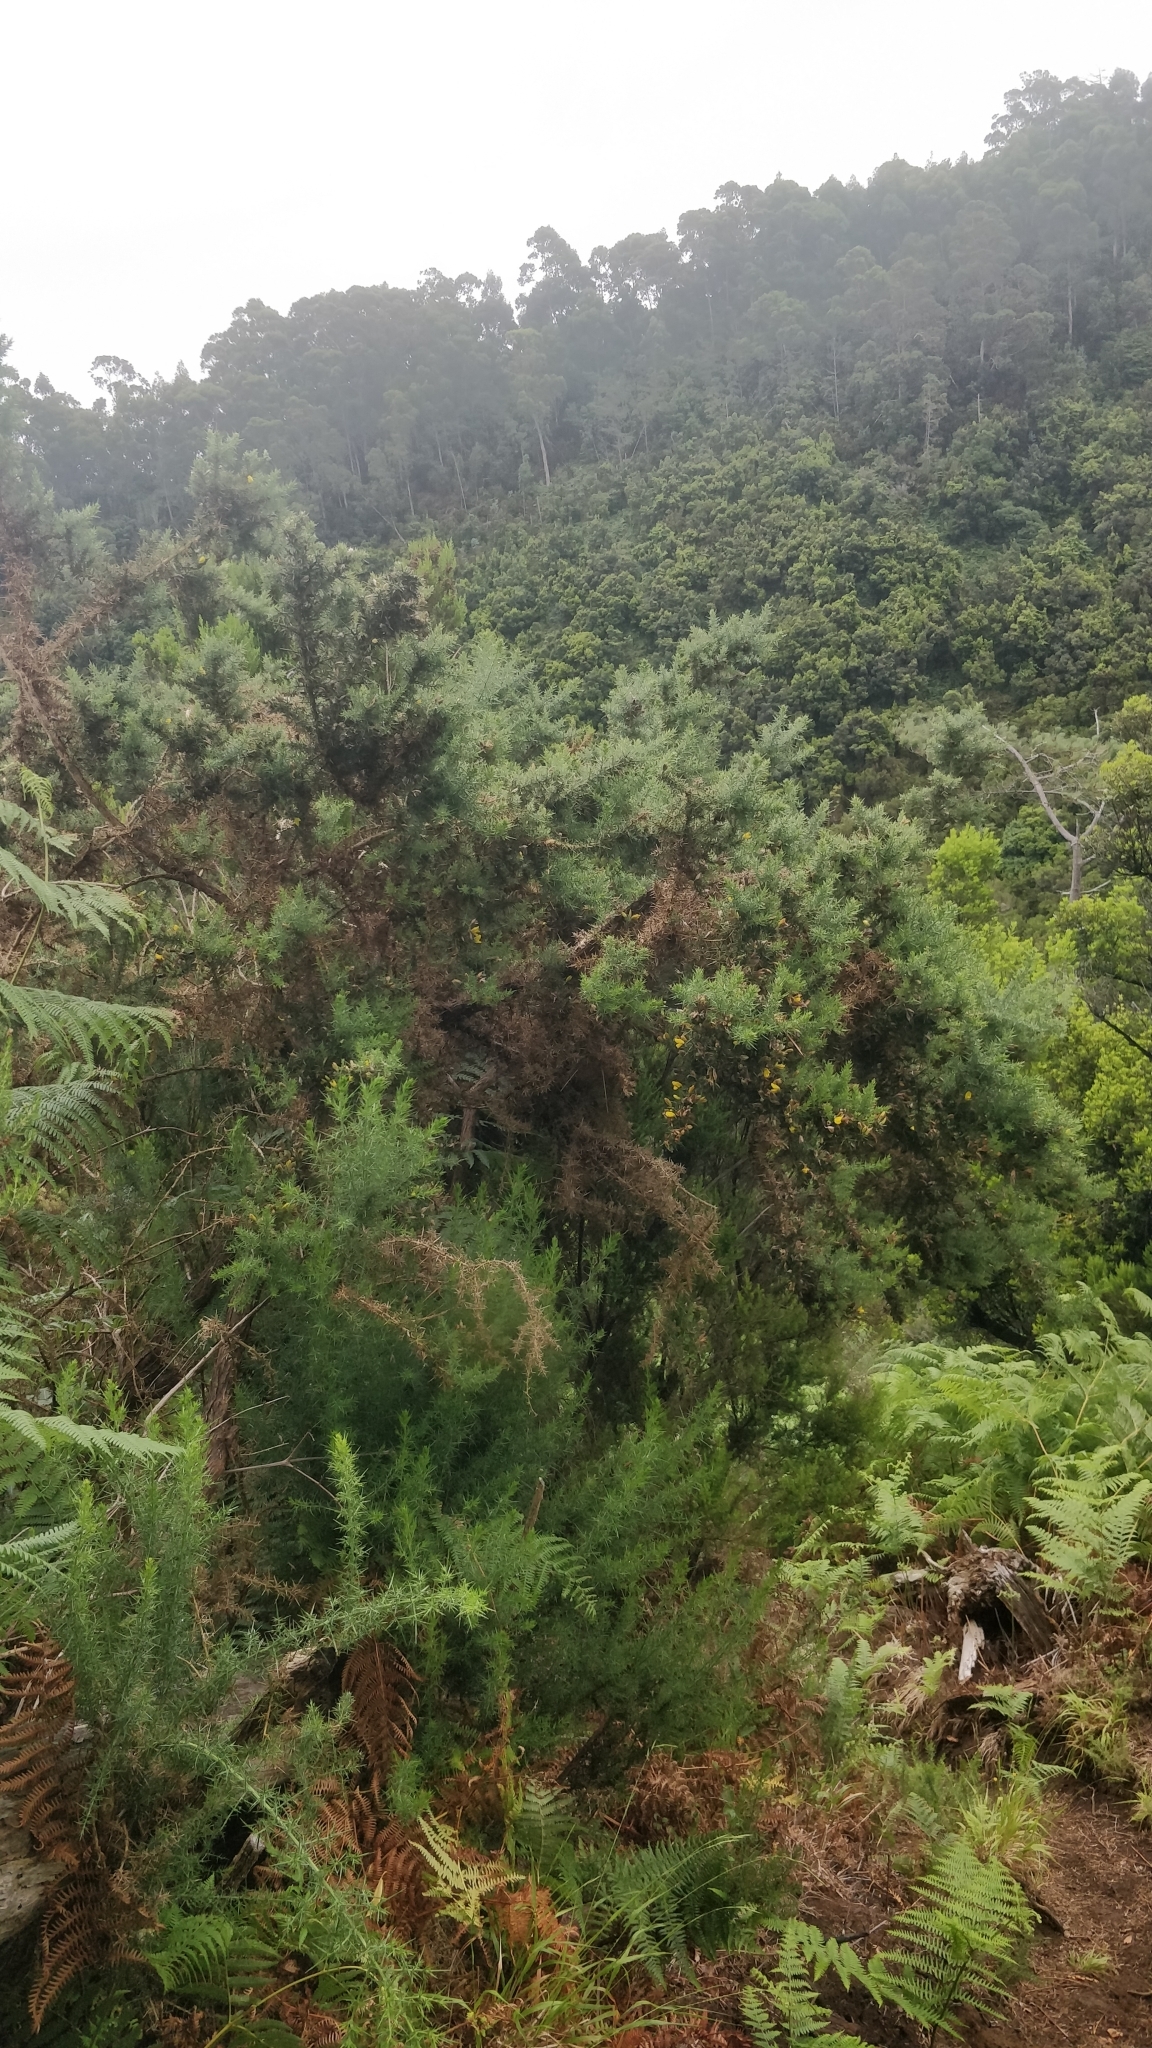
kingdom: Plantae
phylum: Tracheophyta
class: Magnoliopsida
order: Fabales
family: Fabaceae
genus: Ulex
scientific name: Ulex europaeus
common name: Common gorse
